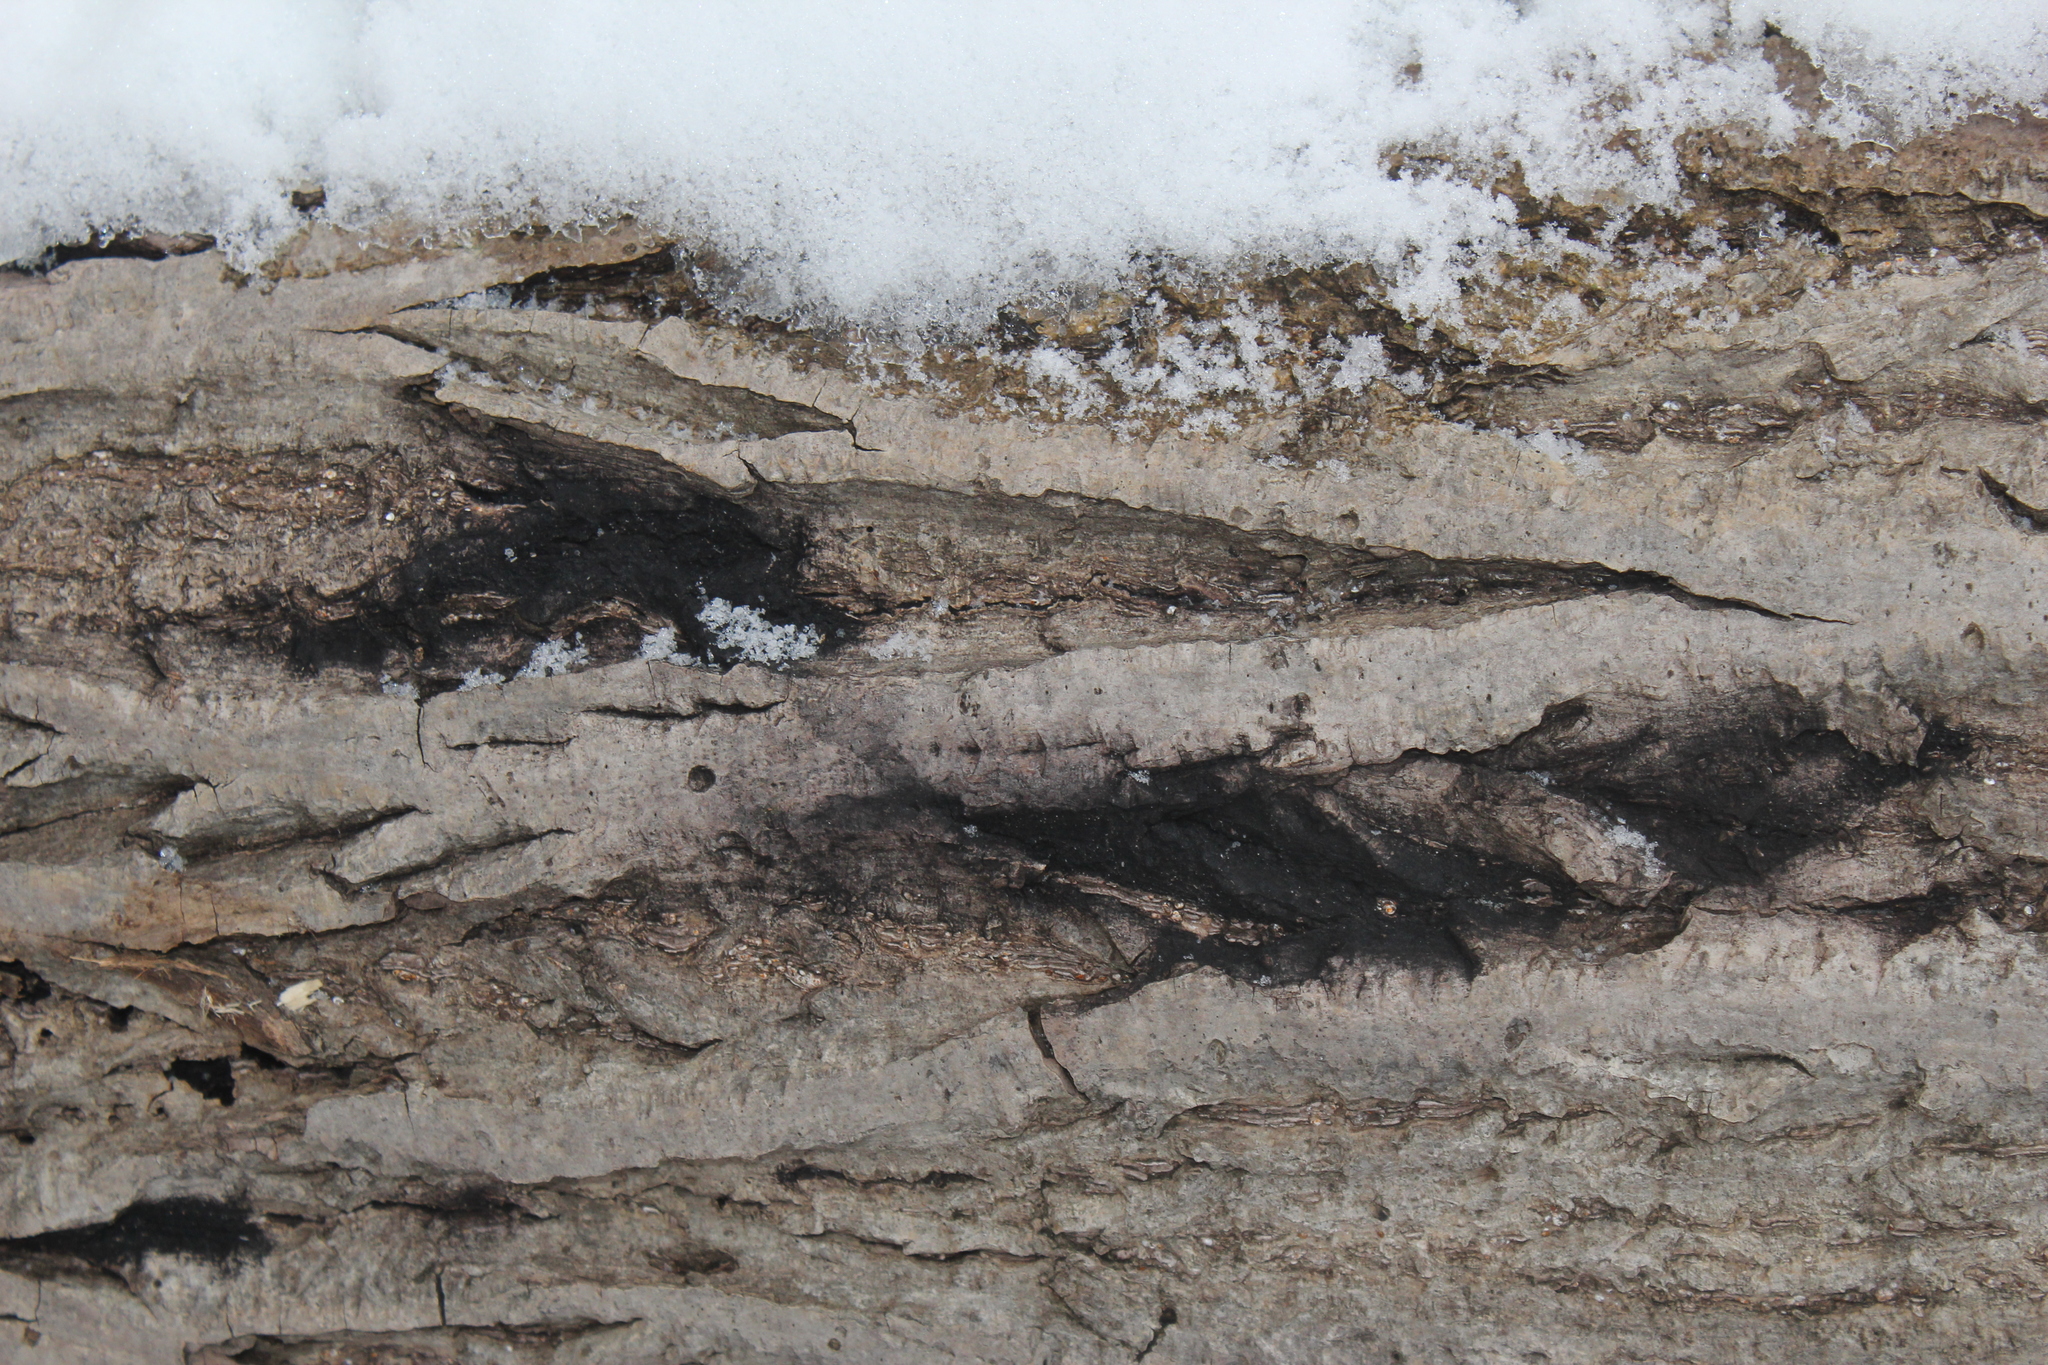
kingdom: Fungi
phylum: Ascomycota
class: Sordariomycetes
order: Diaporthales
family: Gnomoniaceae
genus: Ophiognomonia
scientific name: Ophiognomonia clavigignenti-juglandacearum
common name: Butternut canker fungus
